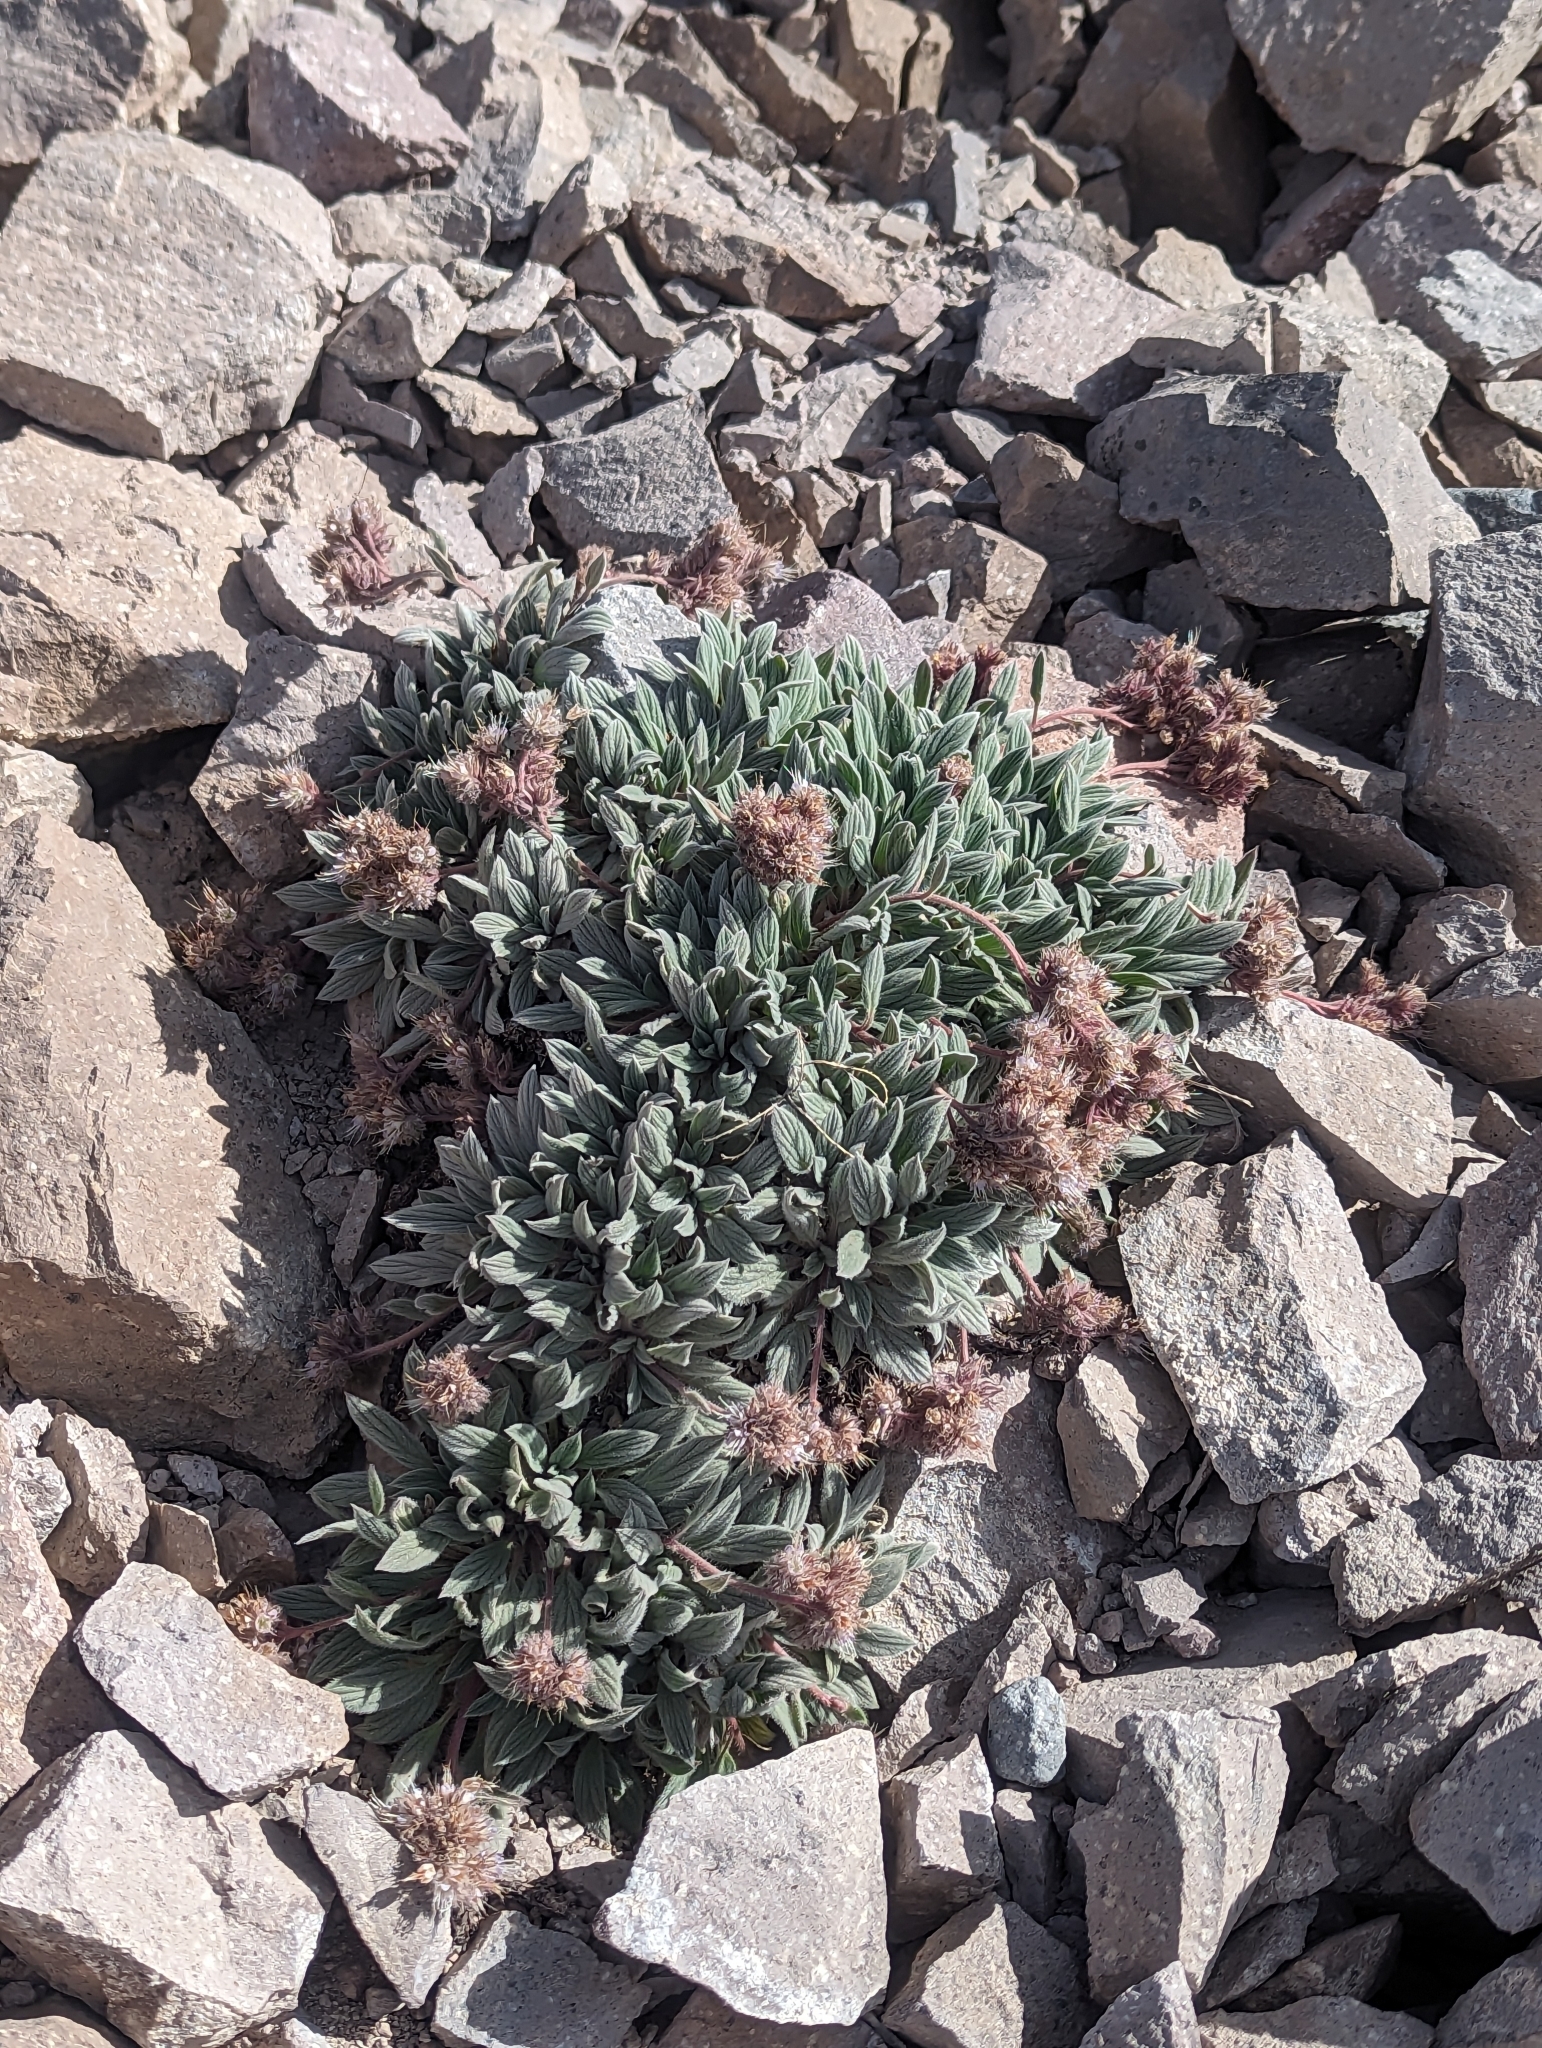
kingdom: Plantae
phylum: Tracheophyta
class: Magnoliopsida
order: Boraginales
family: Hydrophyllaceae
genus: Phacelia
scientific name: Phacelia hastata
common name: Silver-leaved phacelia
